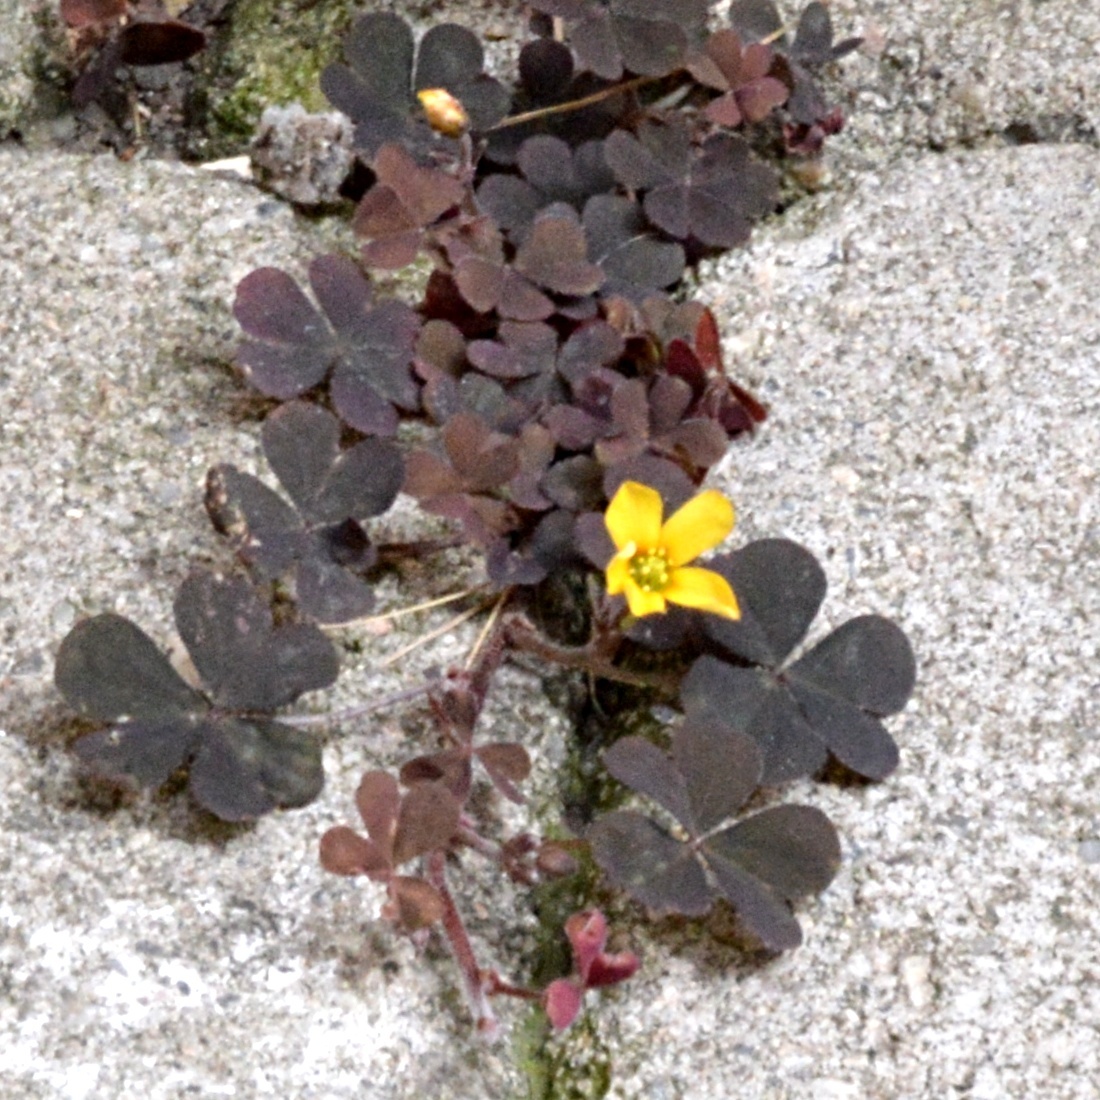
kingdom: Plantae
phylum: Tracheophyta
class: Magnoliopsida
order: Oxalidales
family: Oxalidaceae
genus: Oxalis
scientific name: Oxalis corniculata
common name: Procumbent yellow-sorrel
